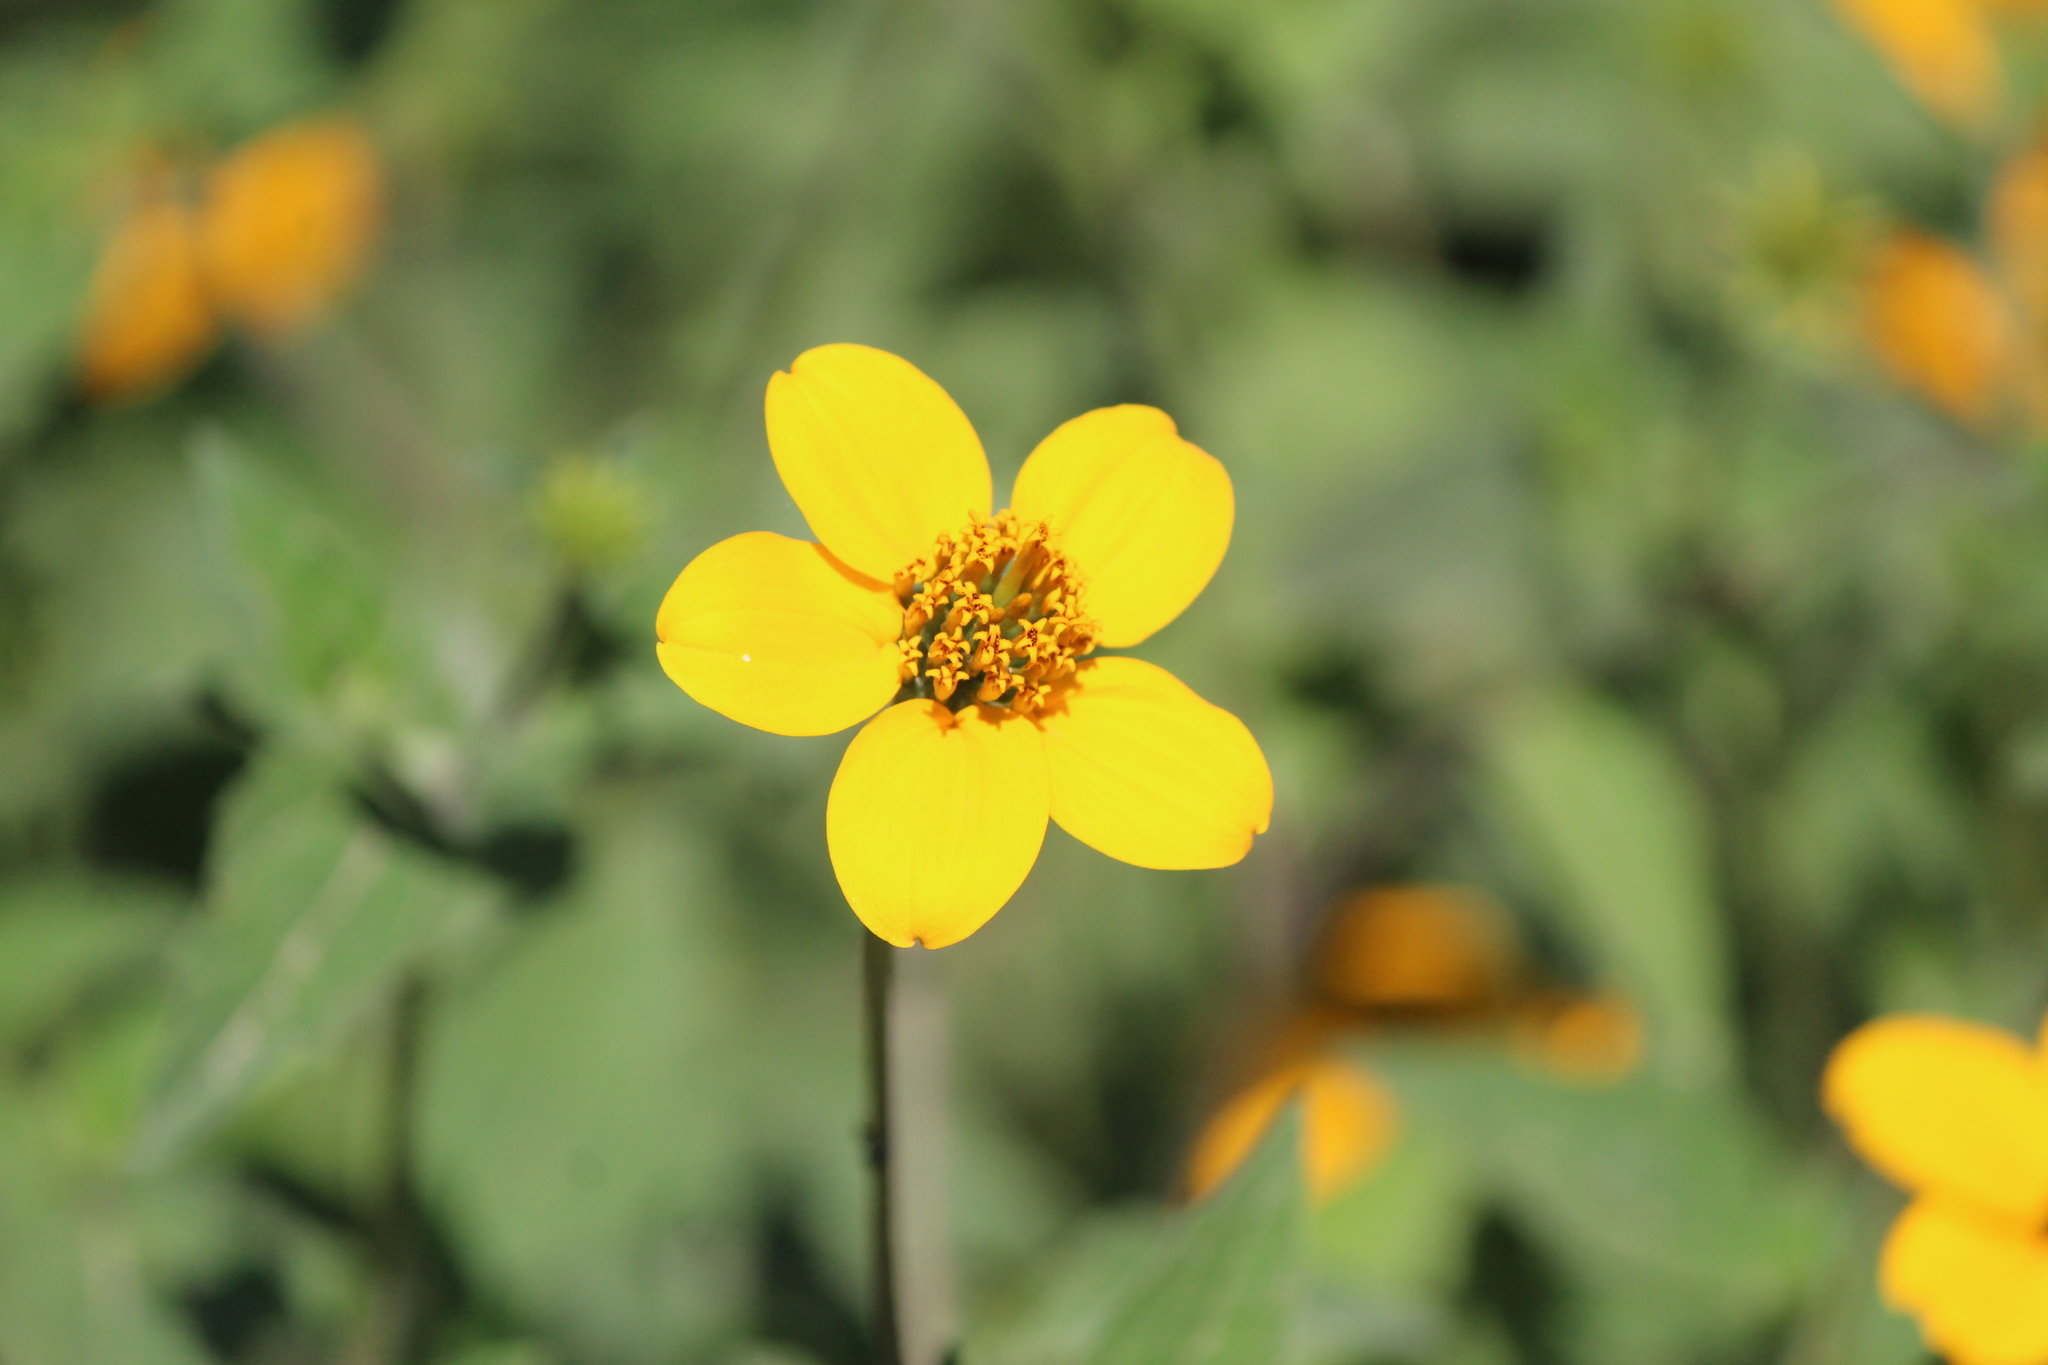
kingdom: Plantae
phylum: Tracheophyta
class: Magnoliopsida
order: Asterales
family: Asteraceae
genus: Sclerocarpus
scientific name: Sclerocarpus uniserialis
